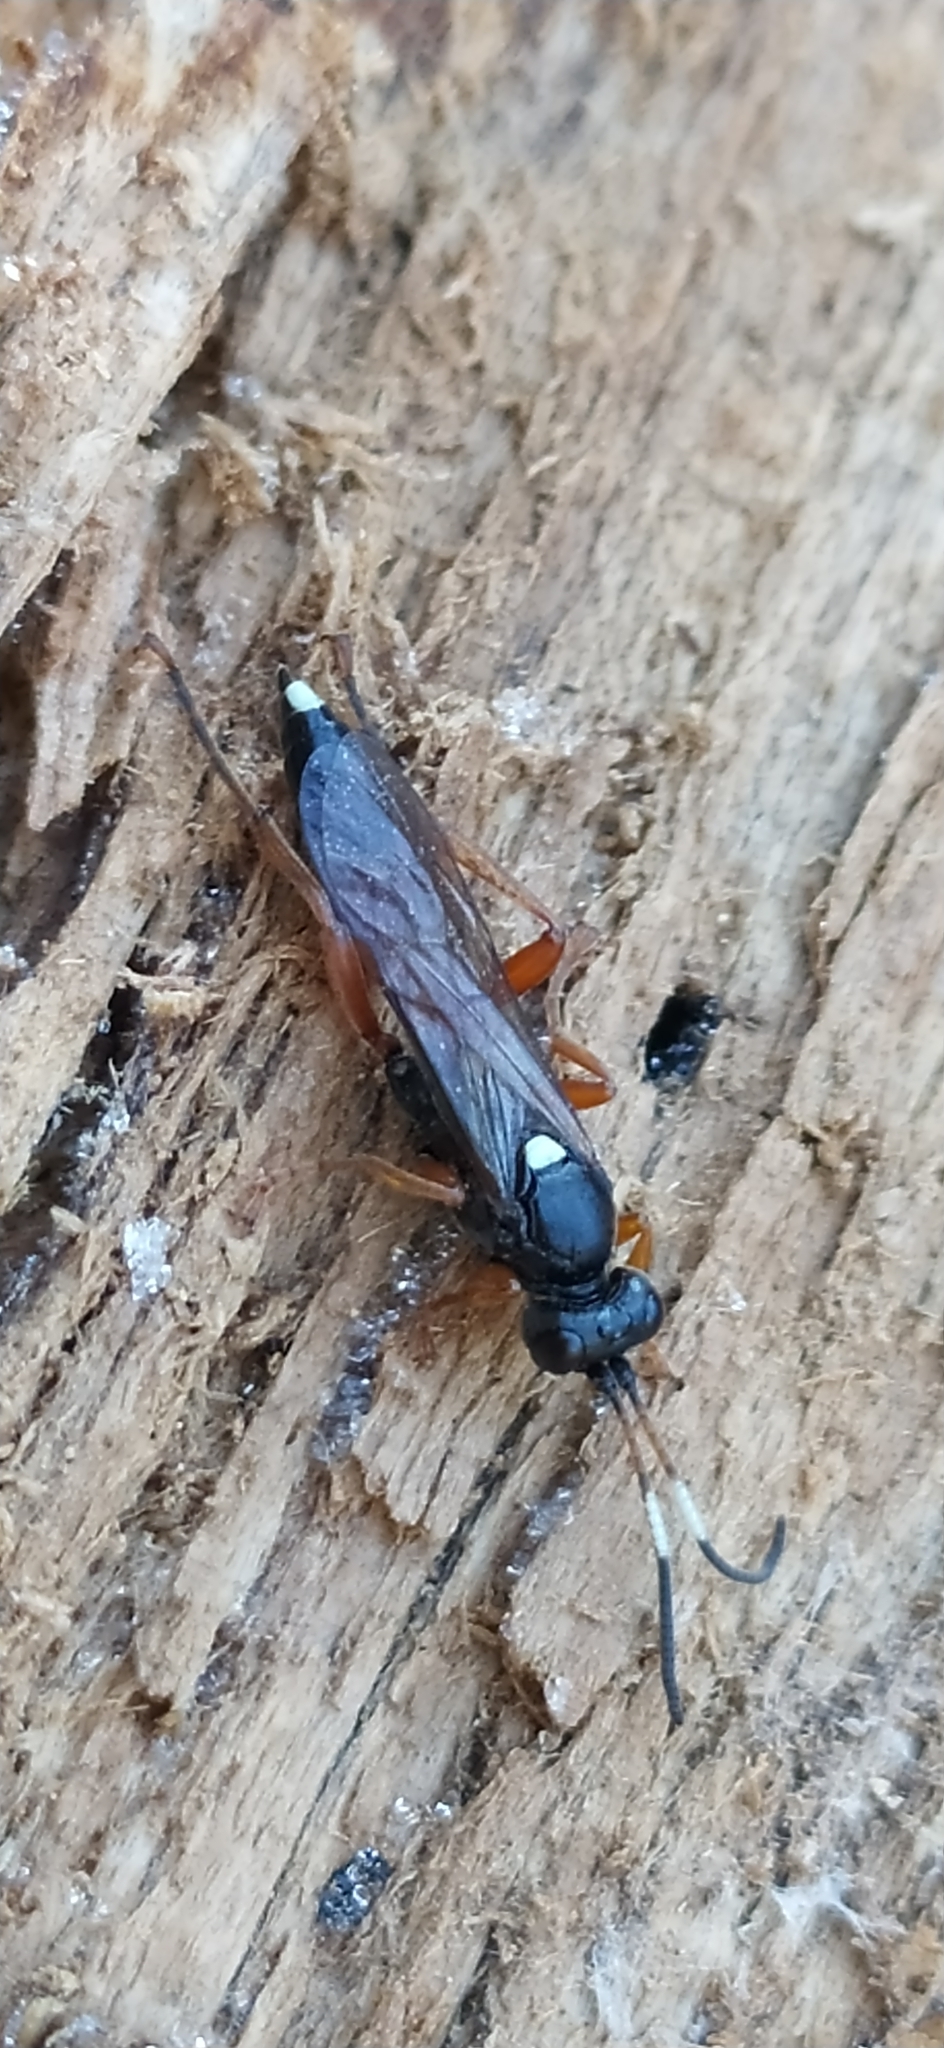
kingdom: Animalia
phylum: Arthropoda
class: Insecta
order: Hymenoptera
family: Ichneumonidae
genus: Chasmias
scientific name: Chasmias motatorius
